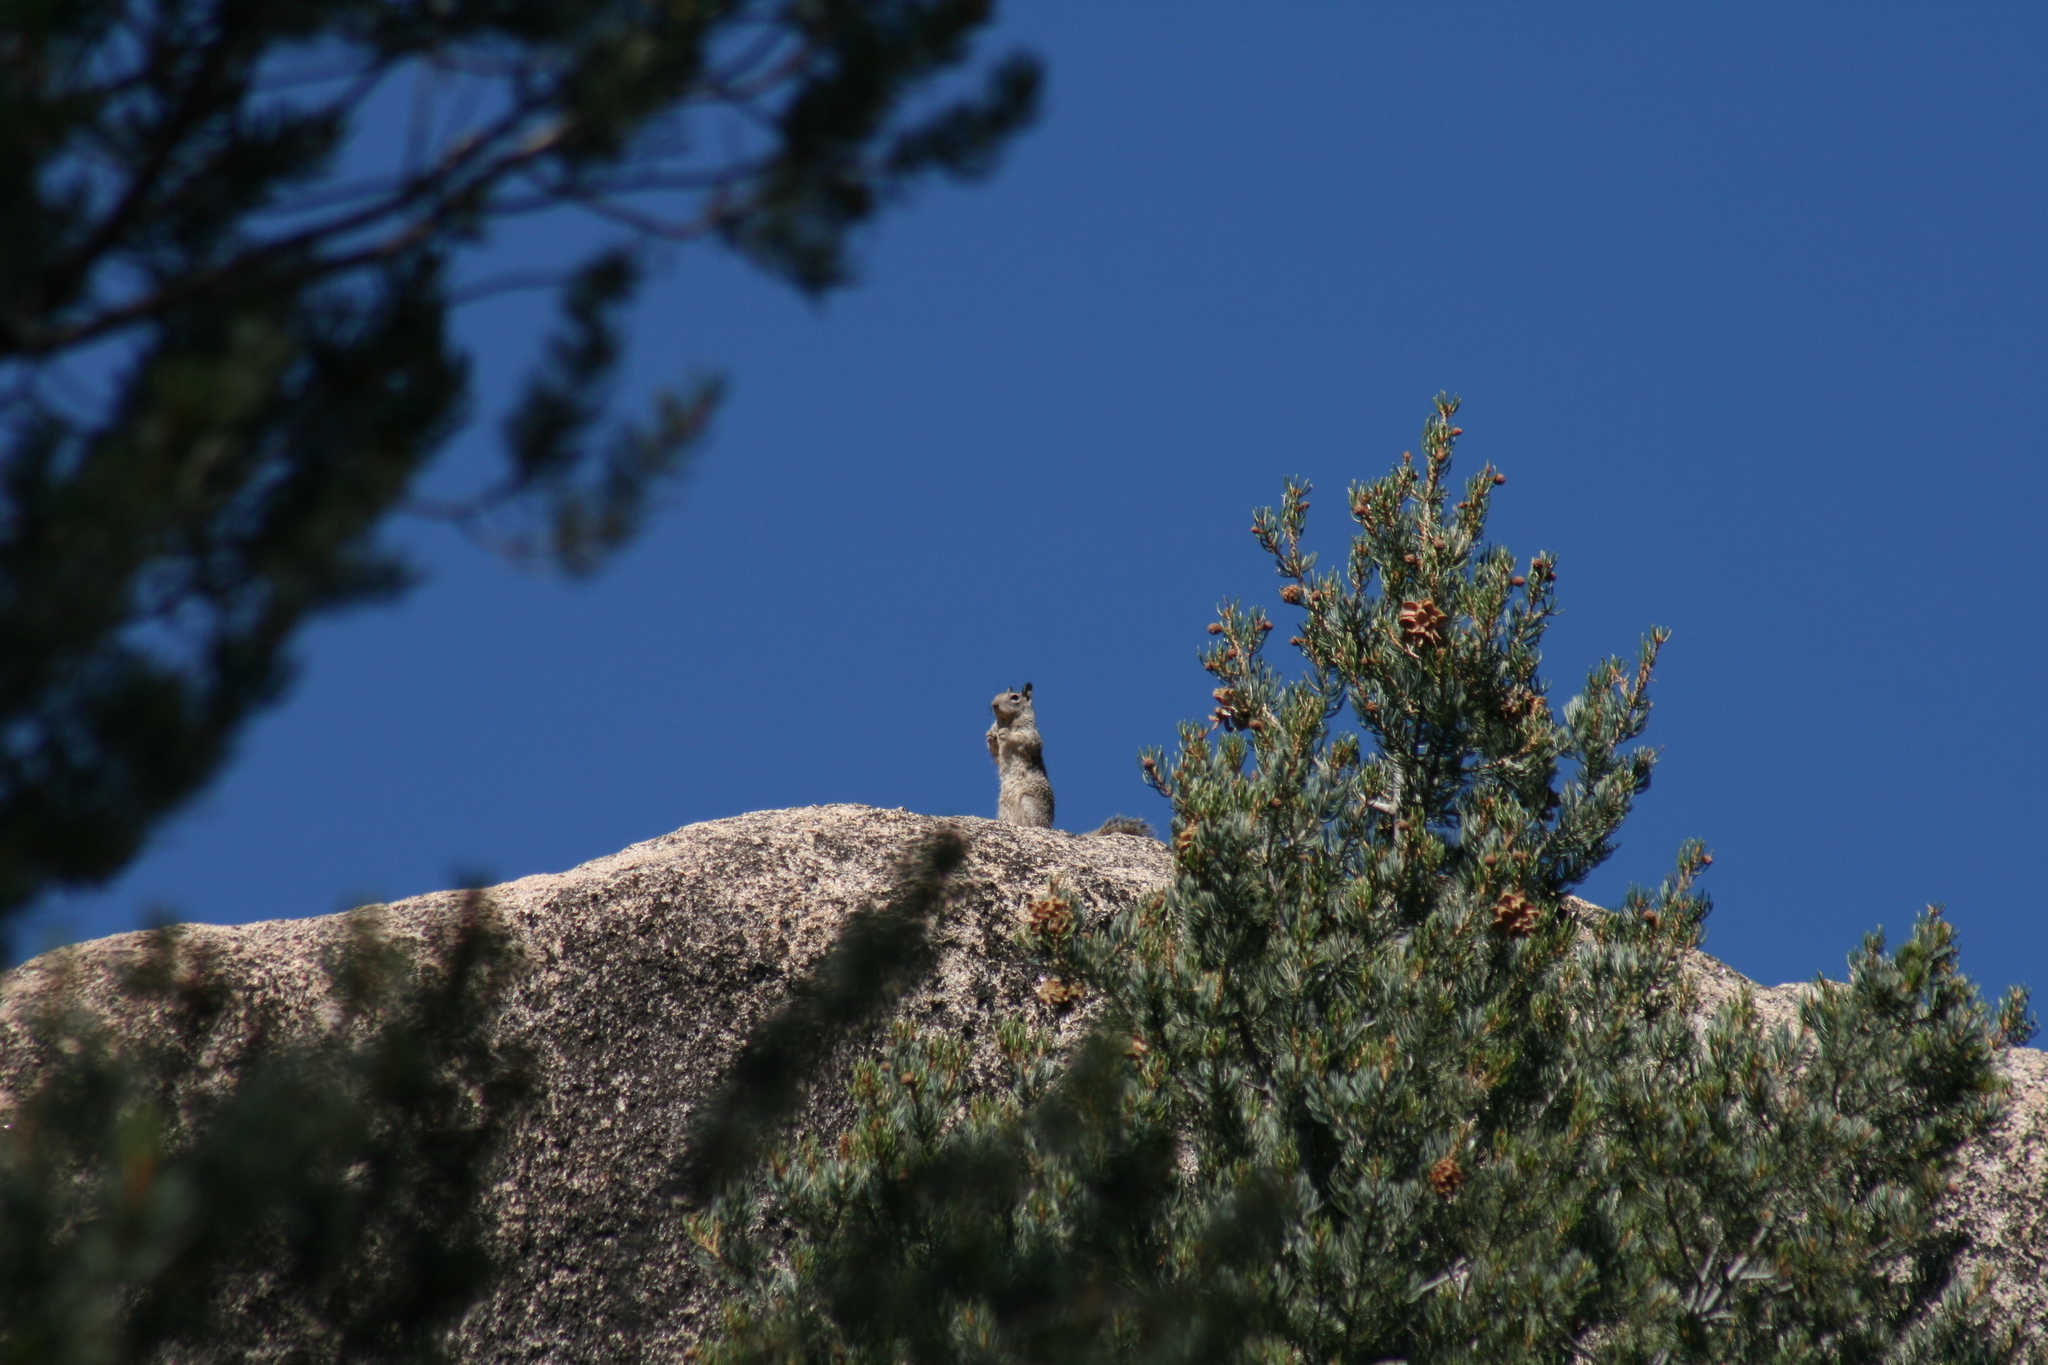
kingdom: Animalia
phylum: Chordata
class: Mammalia
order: Rodentia
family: Sciuridae
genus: Otospermophilus
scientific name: Otospermophilus beecheyi
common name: California ground squirrel
